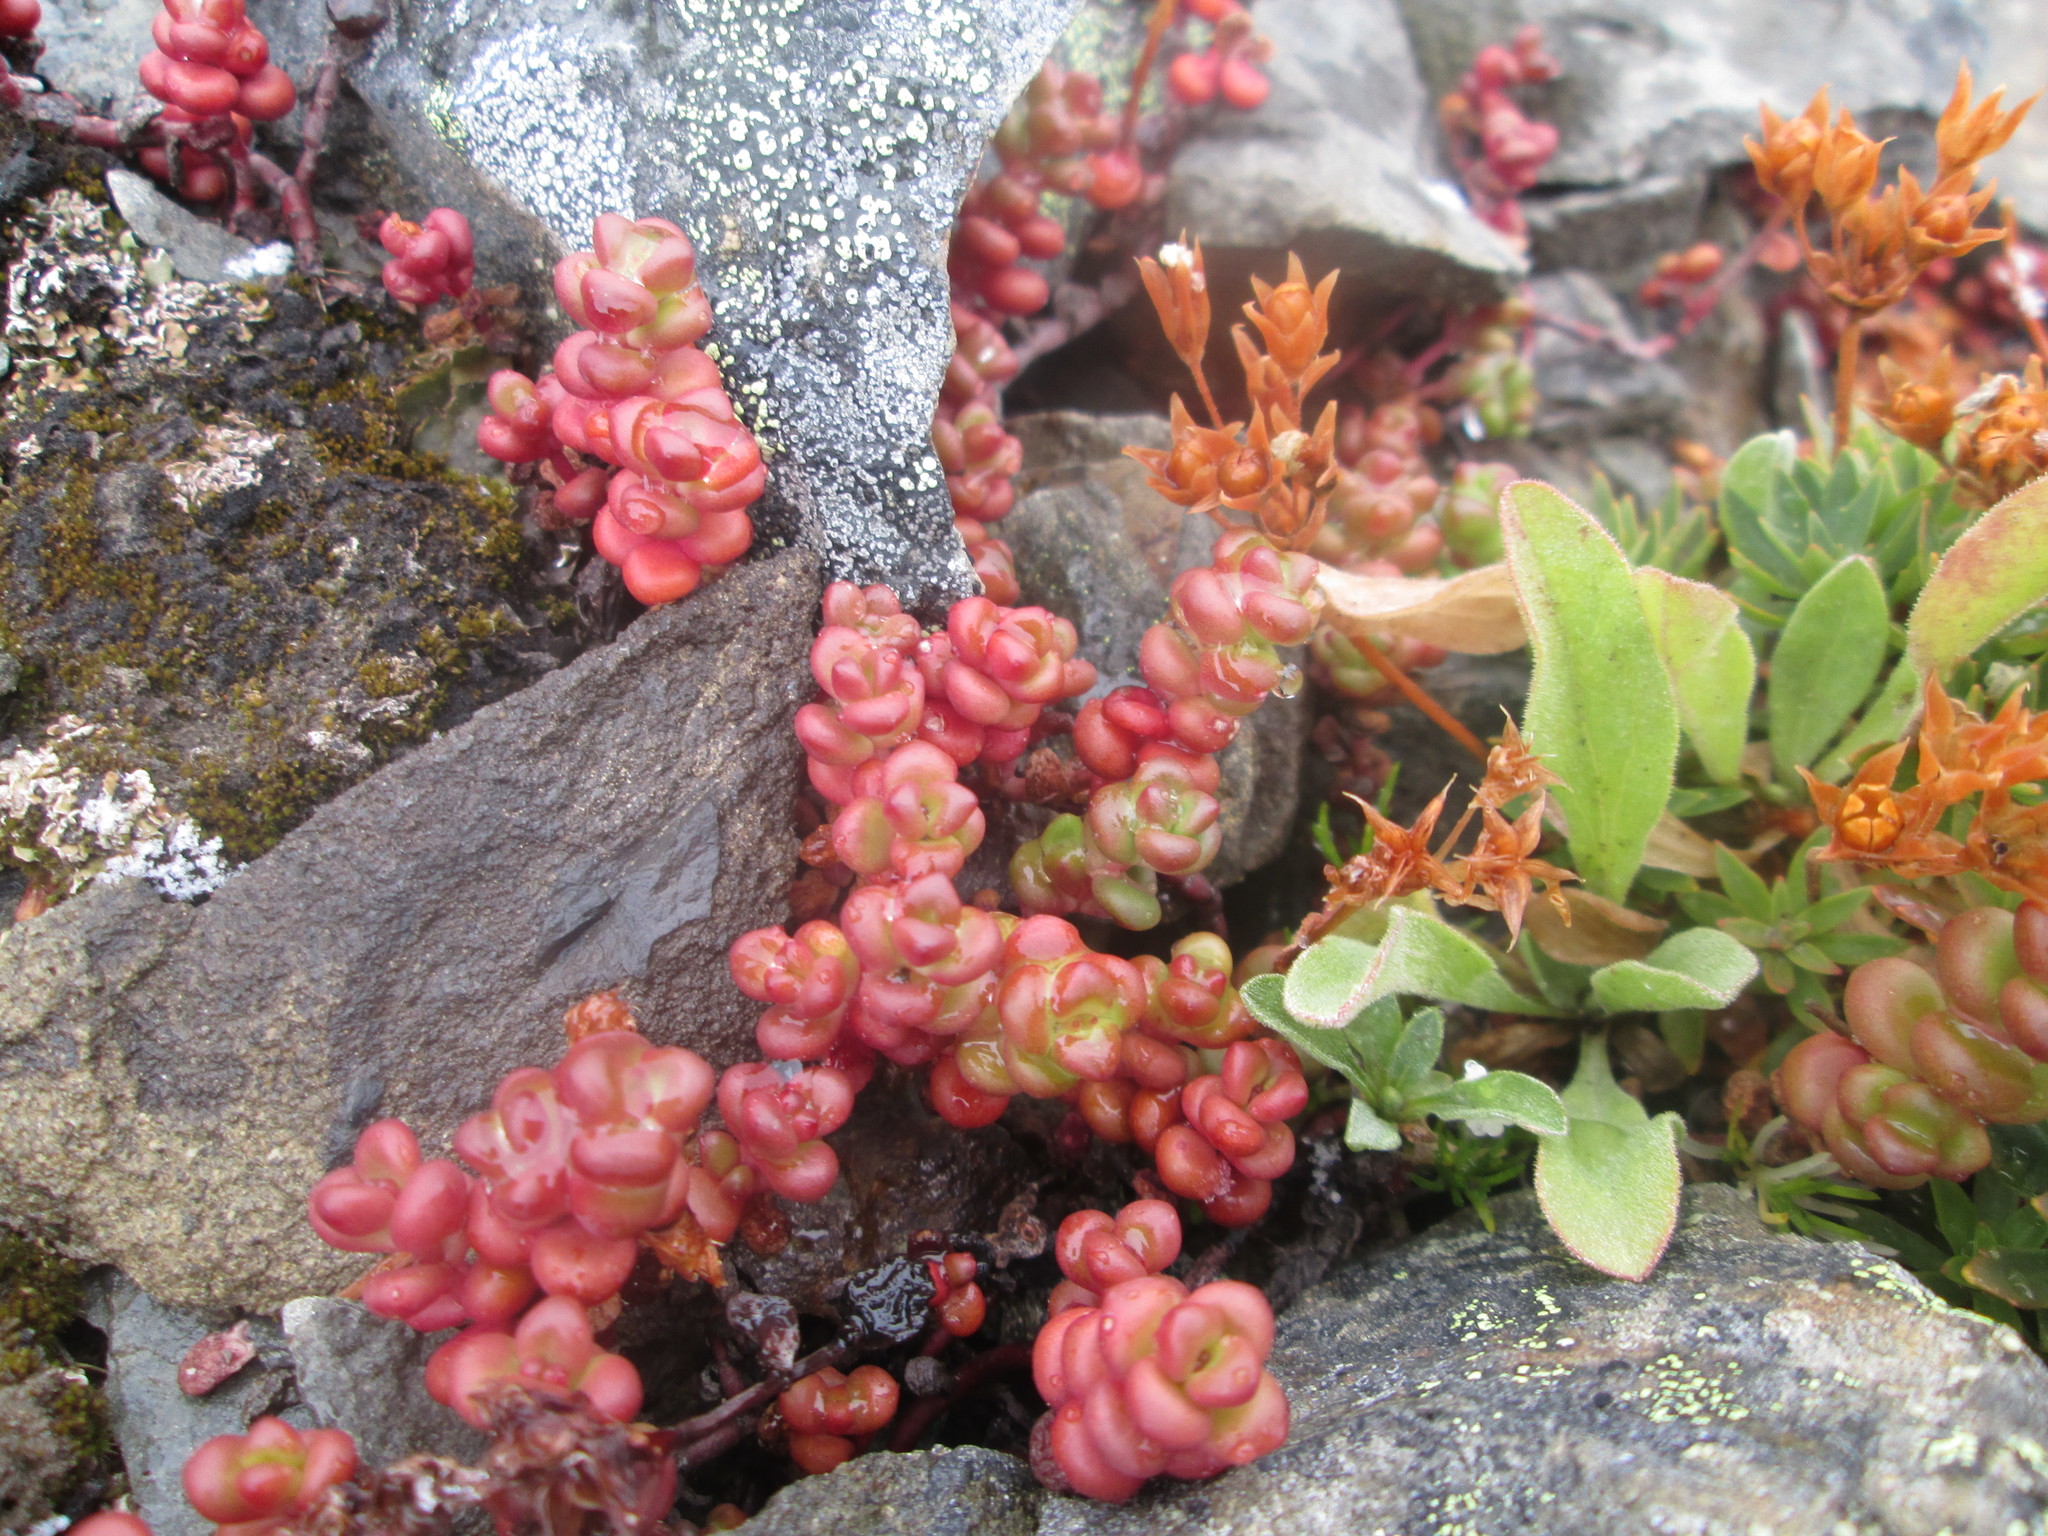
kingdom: Plantae
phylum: Tracheophyta
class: Magnoliopsida
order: Saxifragales
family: Crassulaceae
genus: Sedum
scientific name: Sedum divergens
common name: Cascade stonecrop
